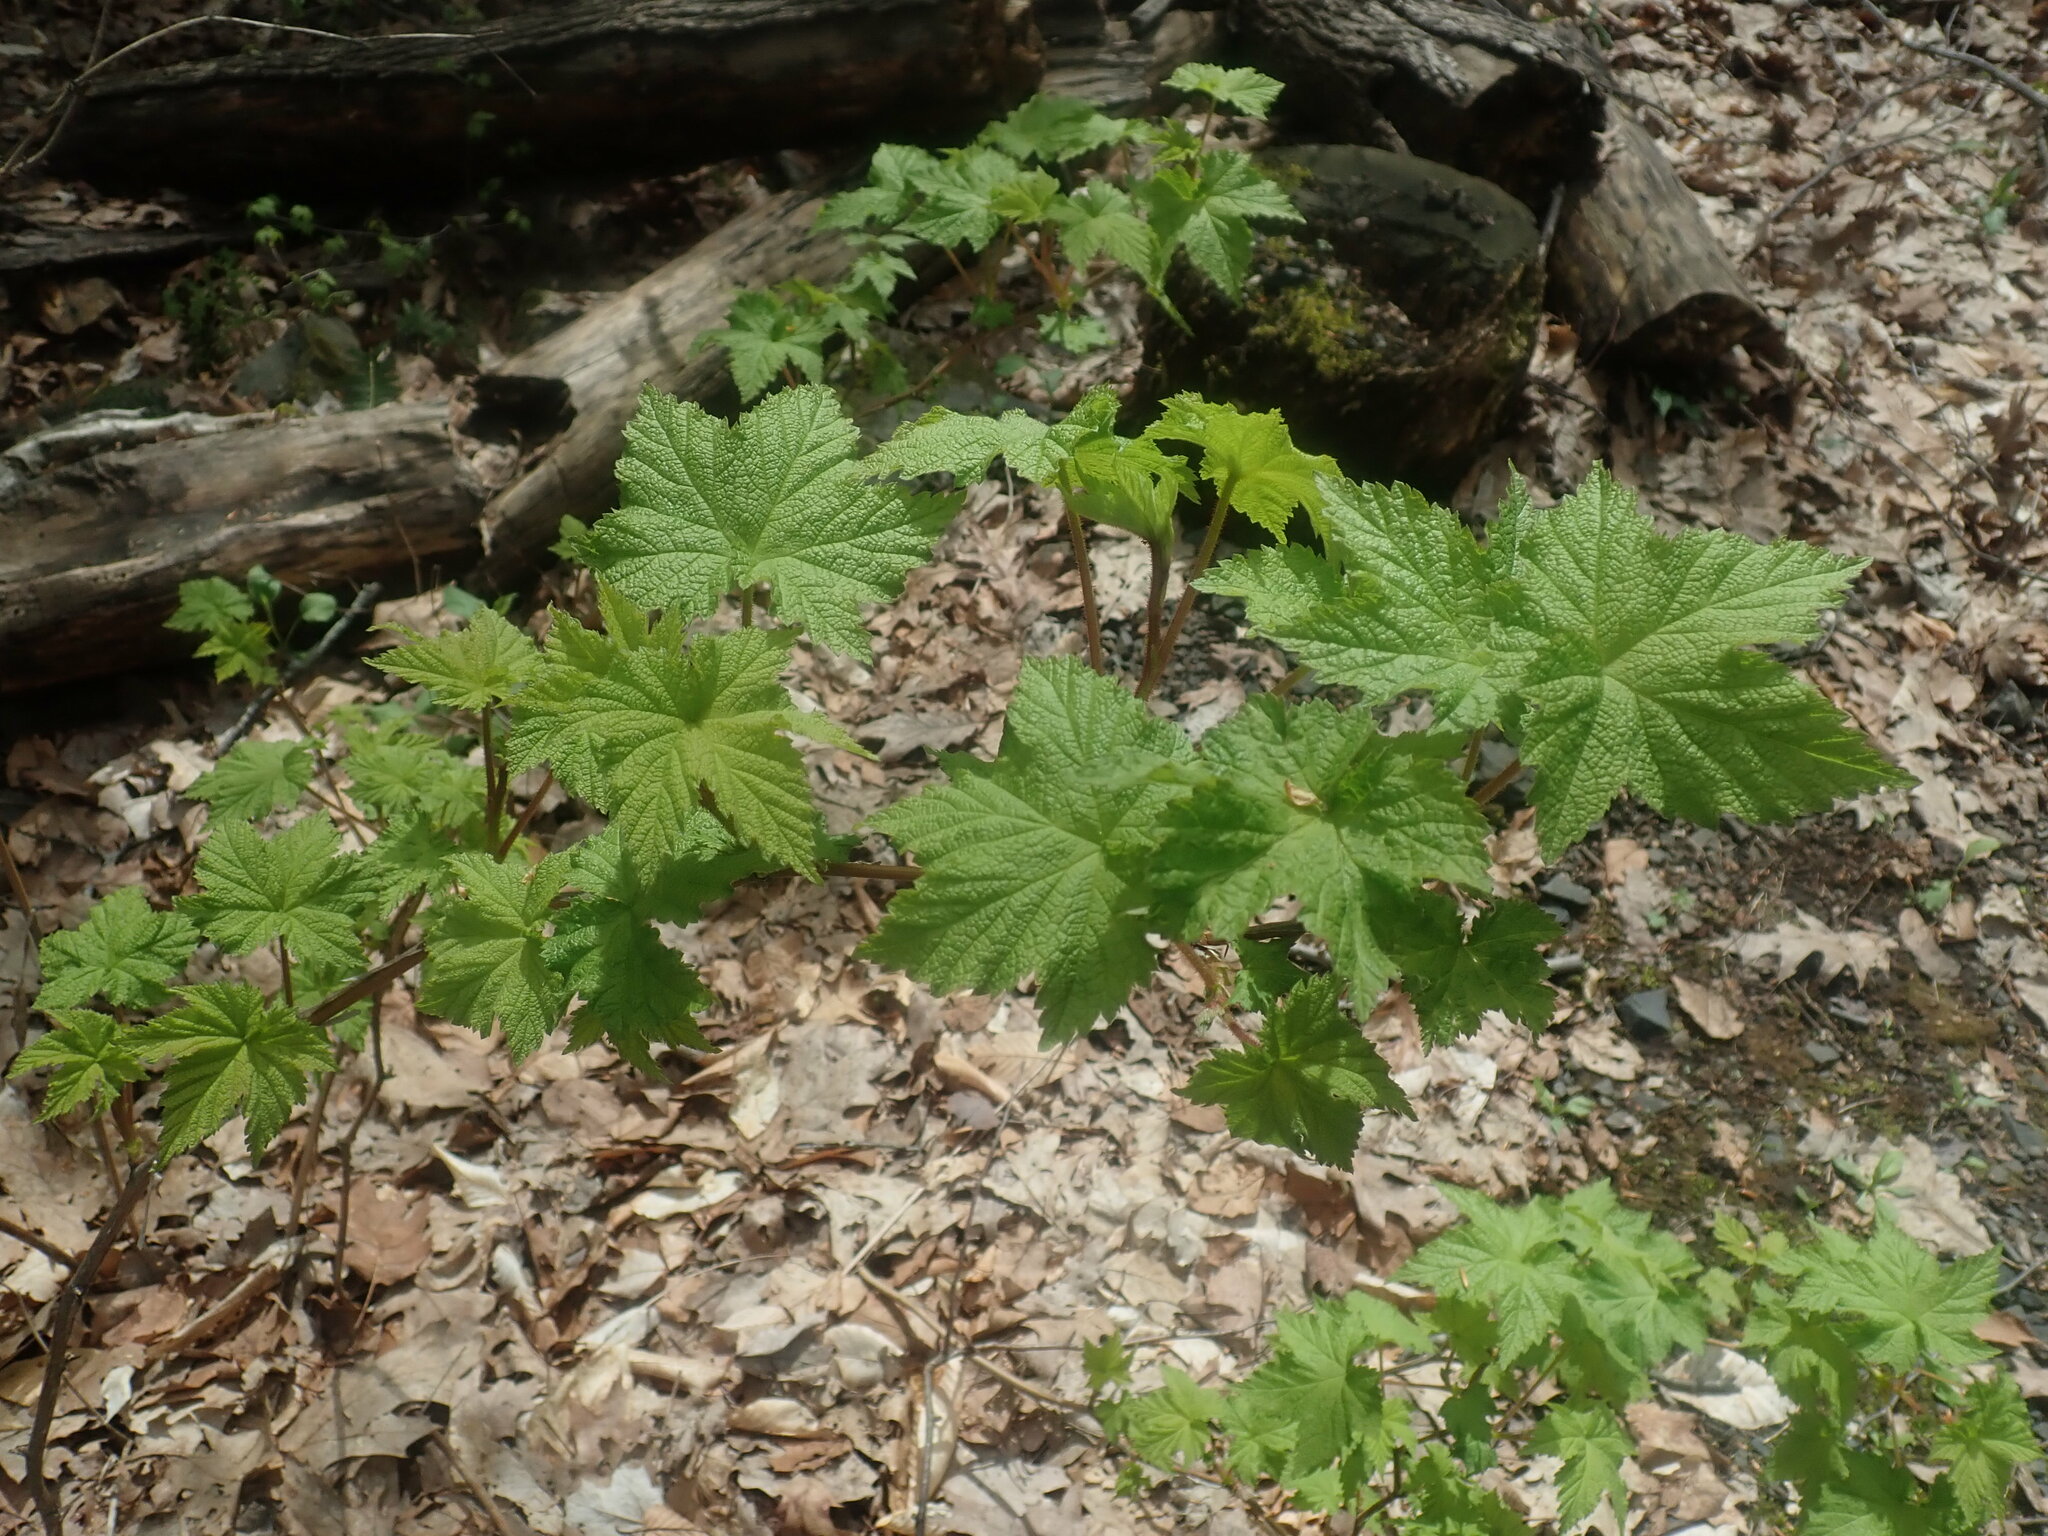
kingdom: Plantae
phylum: Tracheophyta
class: Magnoliopsida
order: Rosales
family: Rosaceae
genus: Rubus
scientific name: Rubus odoratus
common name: Purple-flowered raspberry
